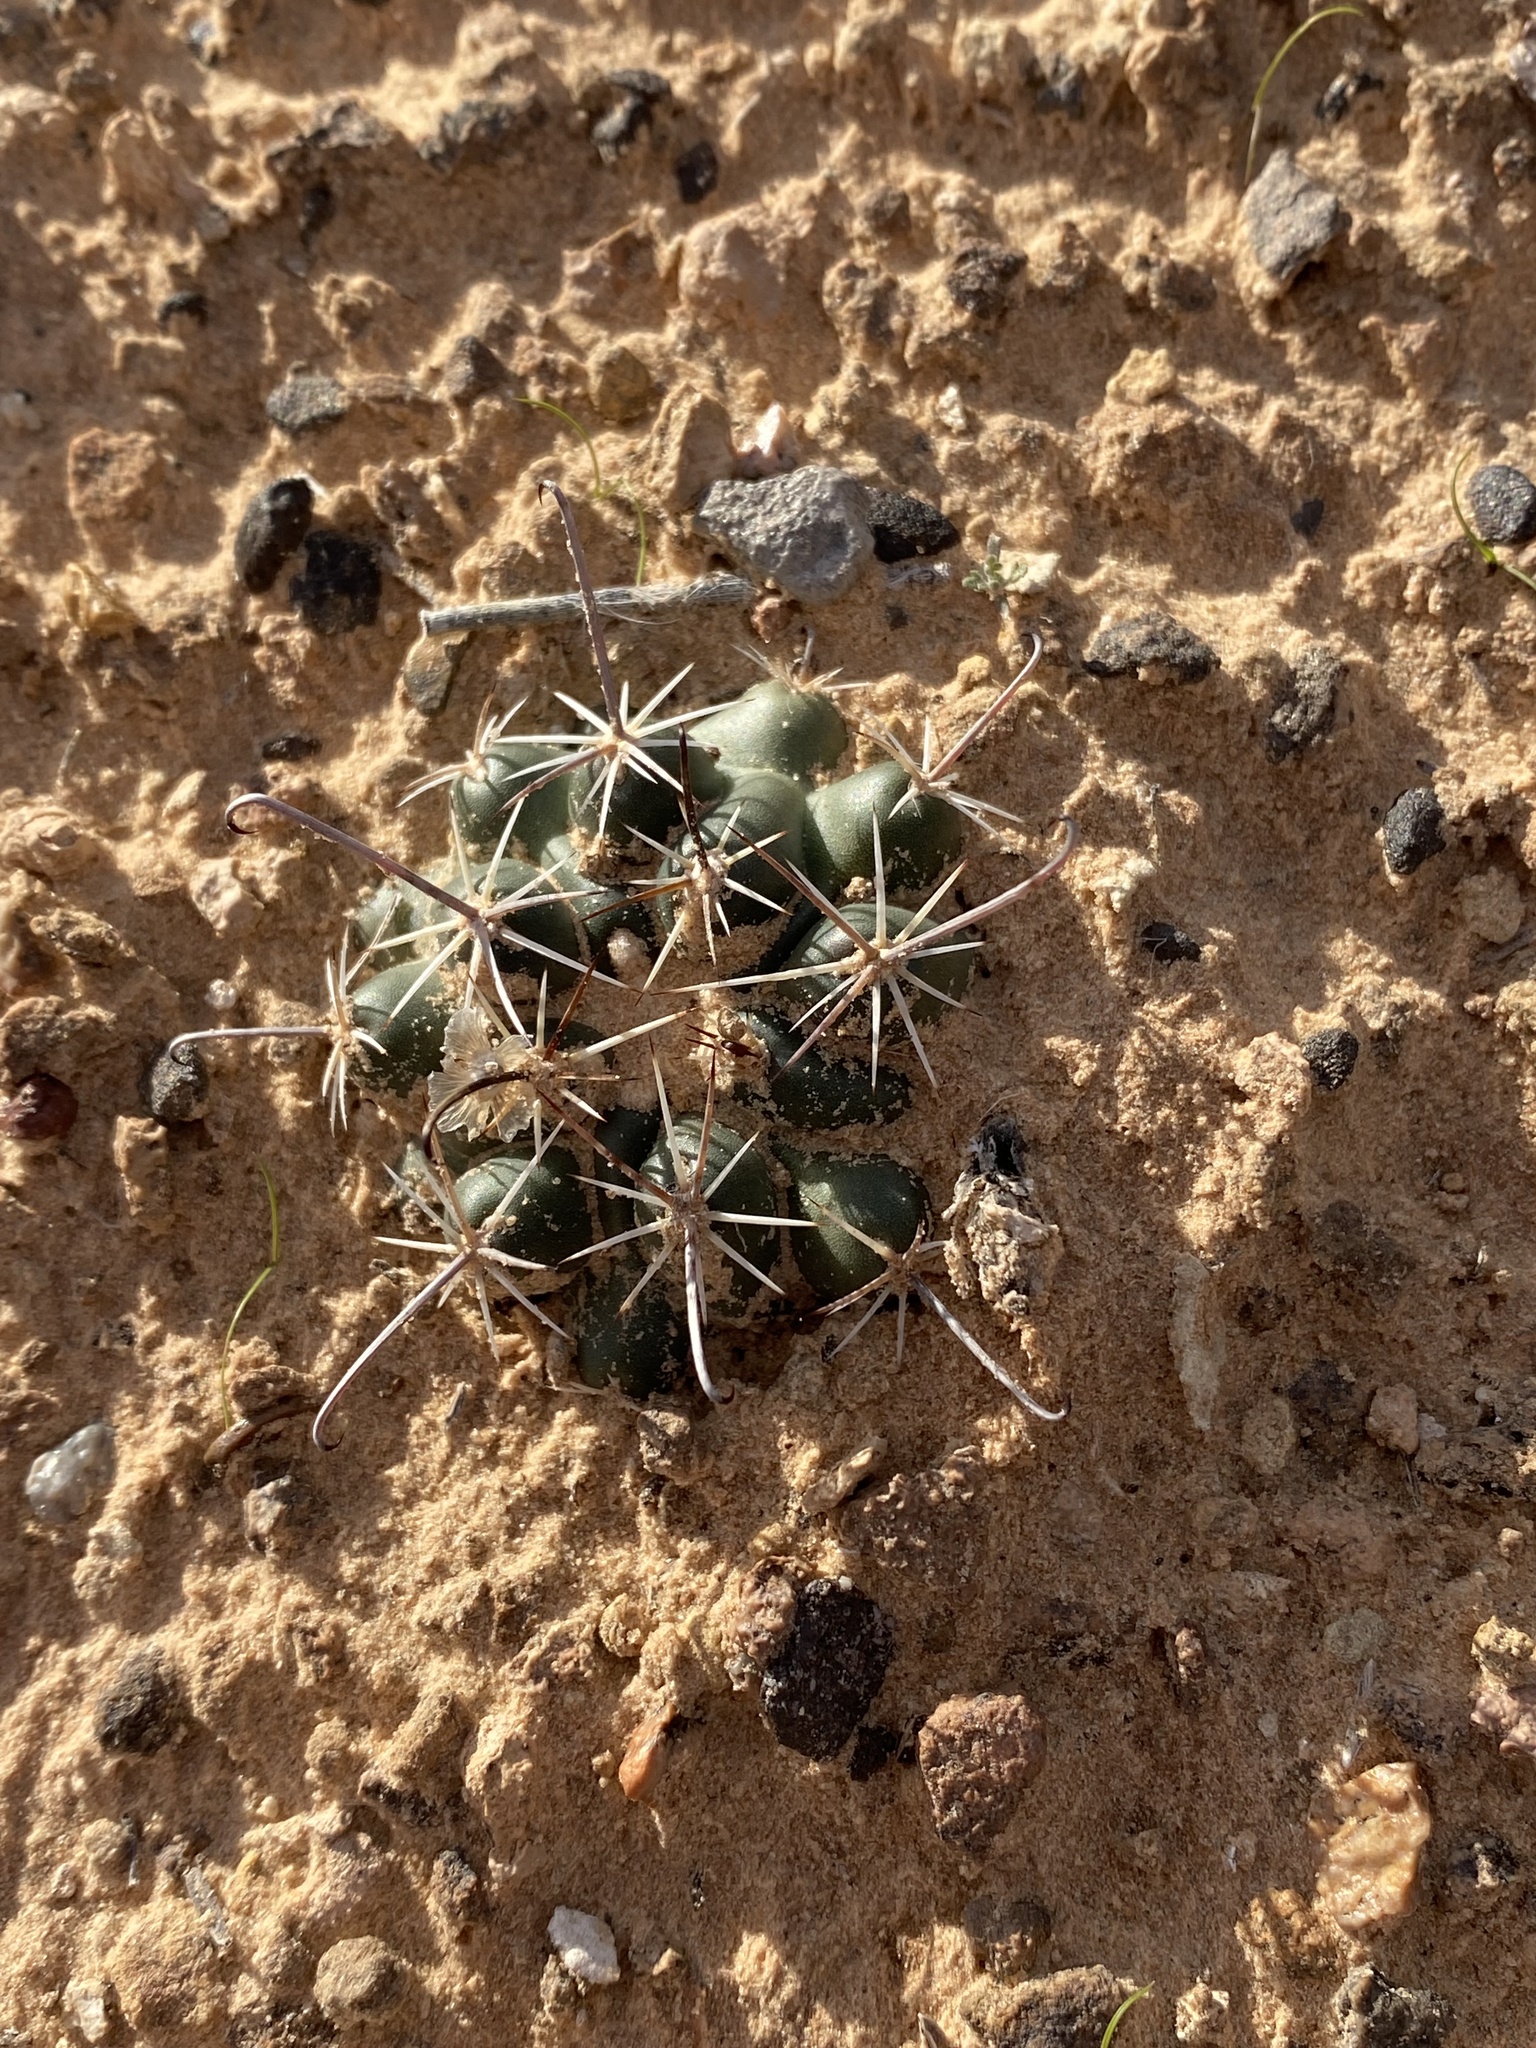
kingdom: Plantae
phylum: Tracheophyta
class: Magnoliopsida
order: Caryophyllales
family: Cactaceae
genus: Sclerocactus
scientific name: Sclerocactus parviflorus
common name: Small-flower fishhook cactus
